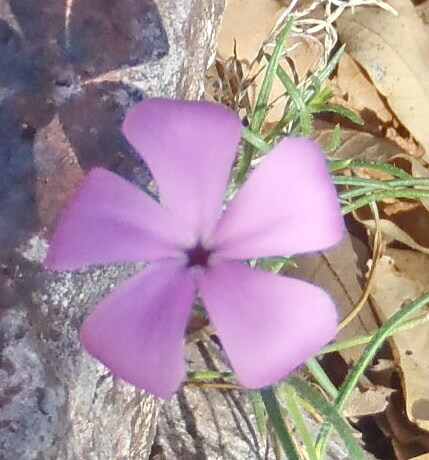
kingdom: Plantae
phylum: Tracheophyta
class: Magnoliopsida
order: Ericales
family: Polemoniaceae
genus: Phlox
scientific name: Phlox nana
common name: Santa fe phlox
